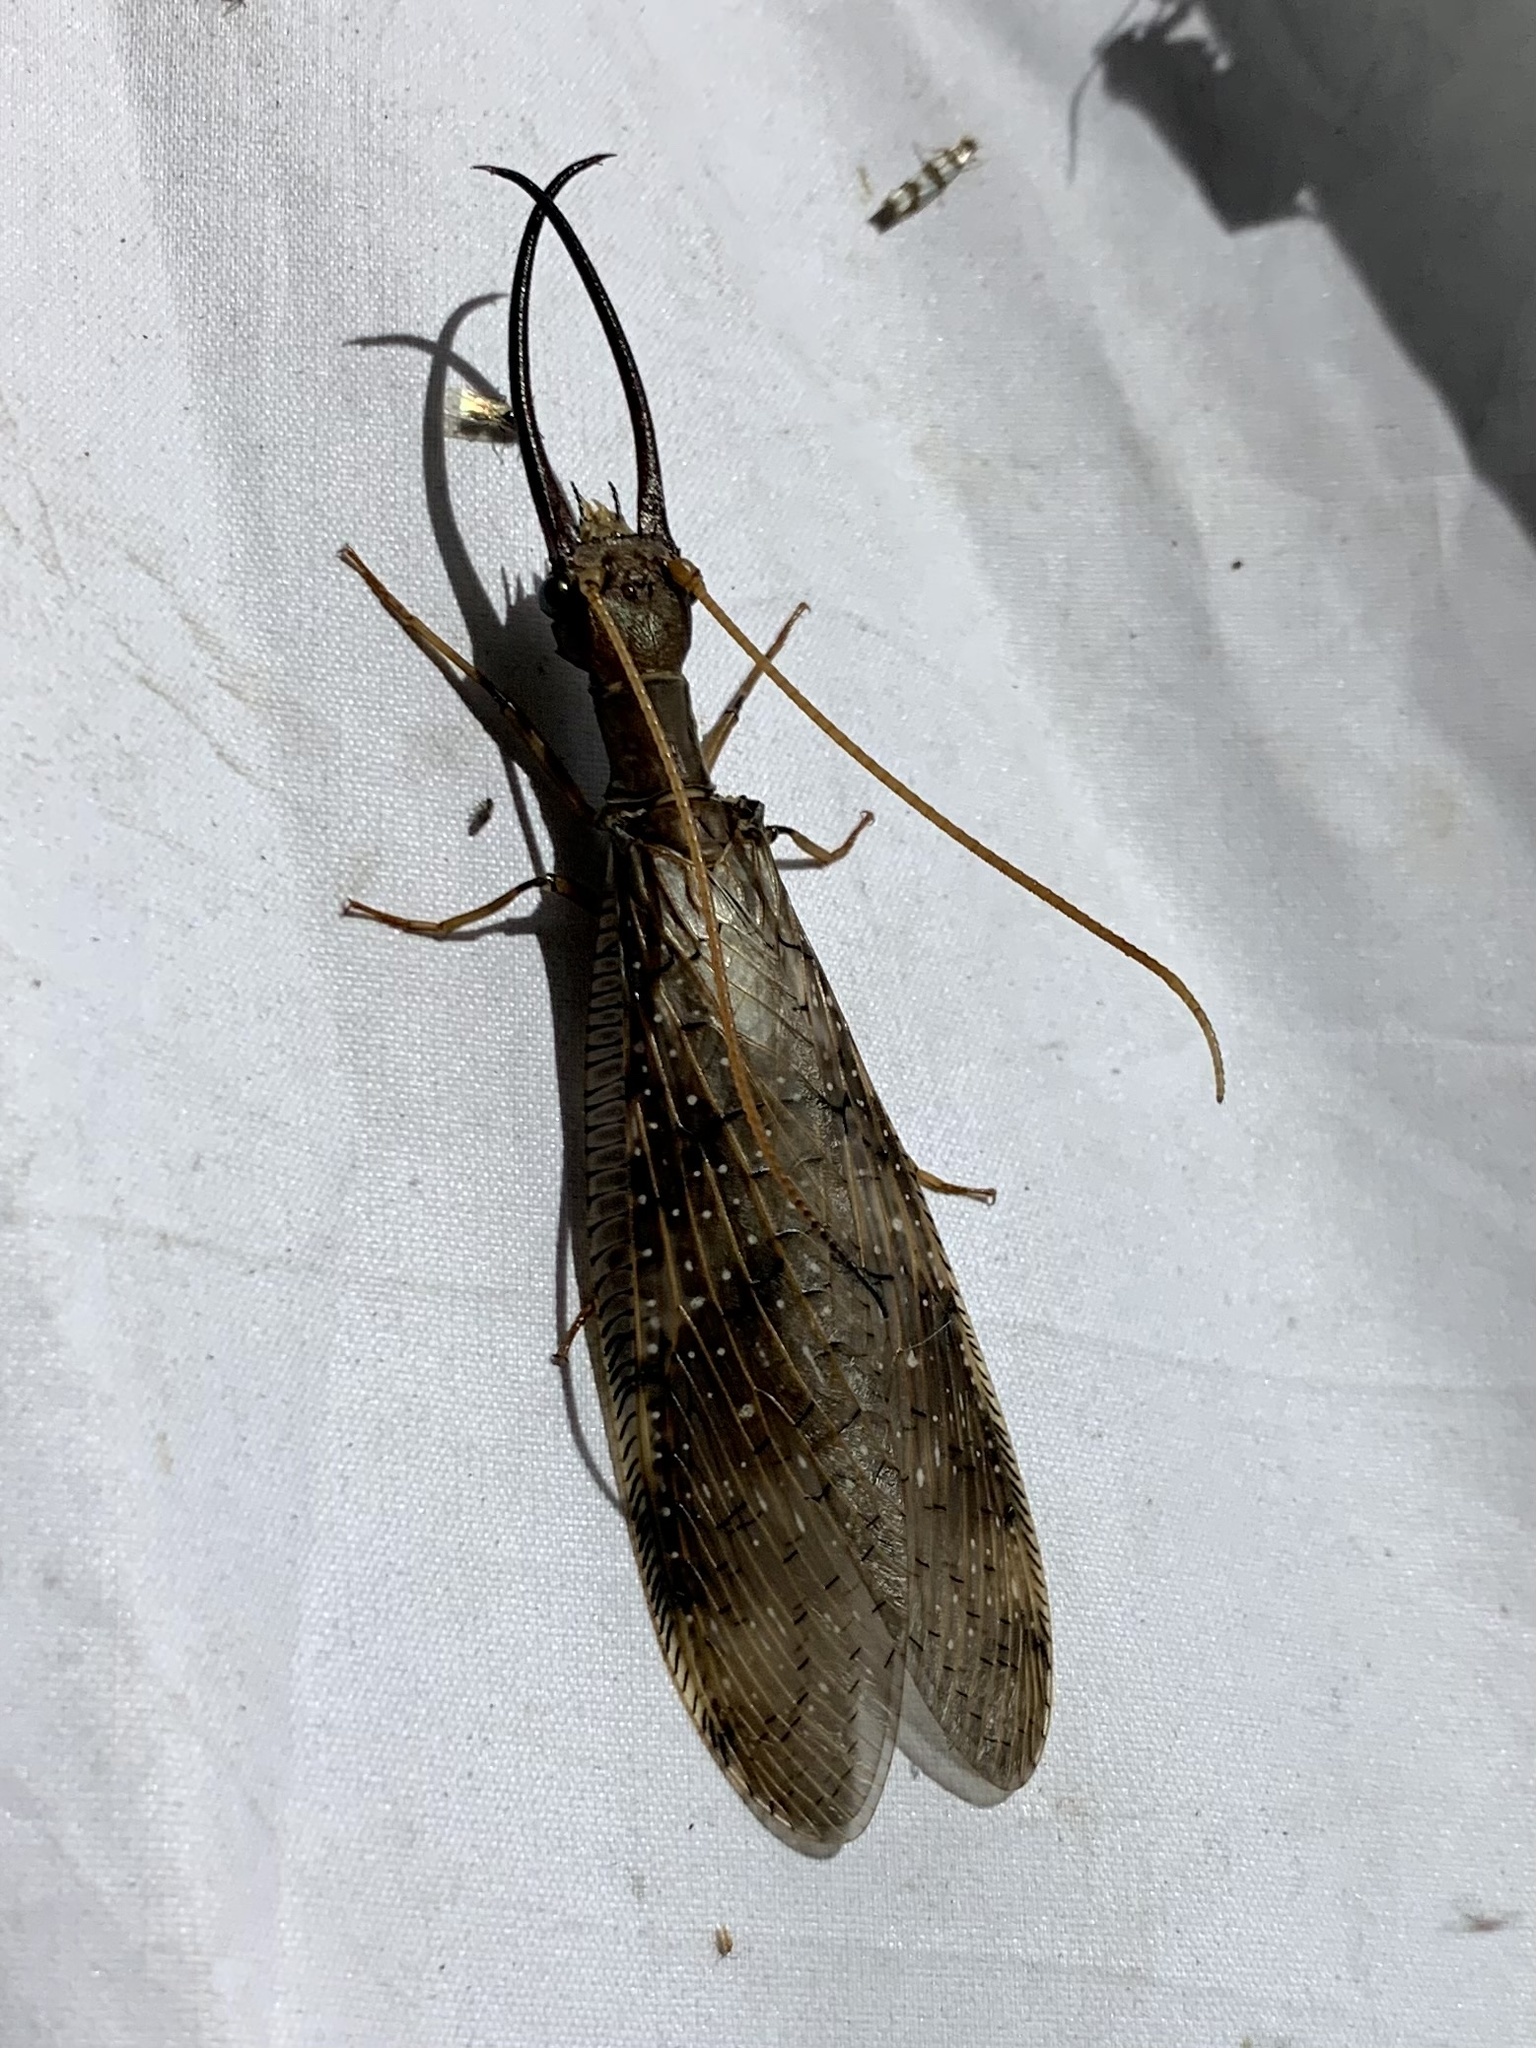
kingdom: Animalia
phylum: Arthropoda
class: Insecta
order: Megaloptera
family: Corydalidae
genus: Corydalus
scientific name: Corydalus peruvianus
